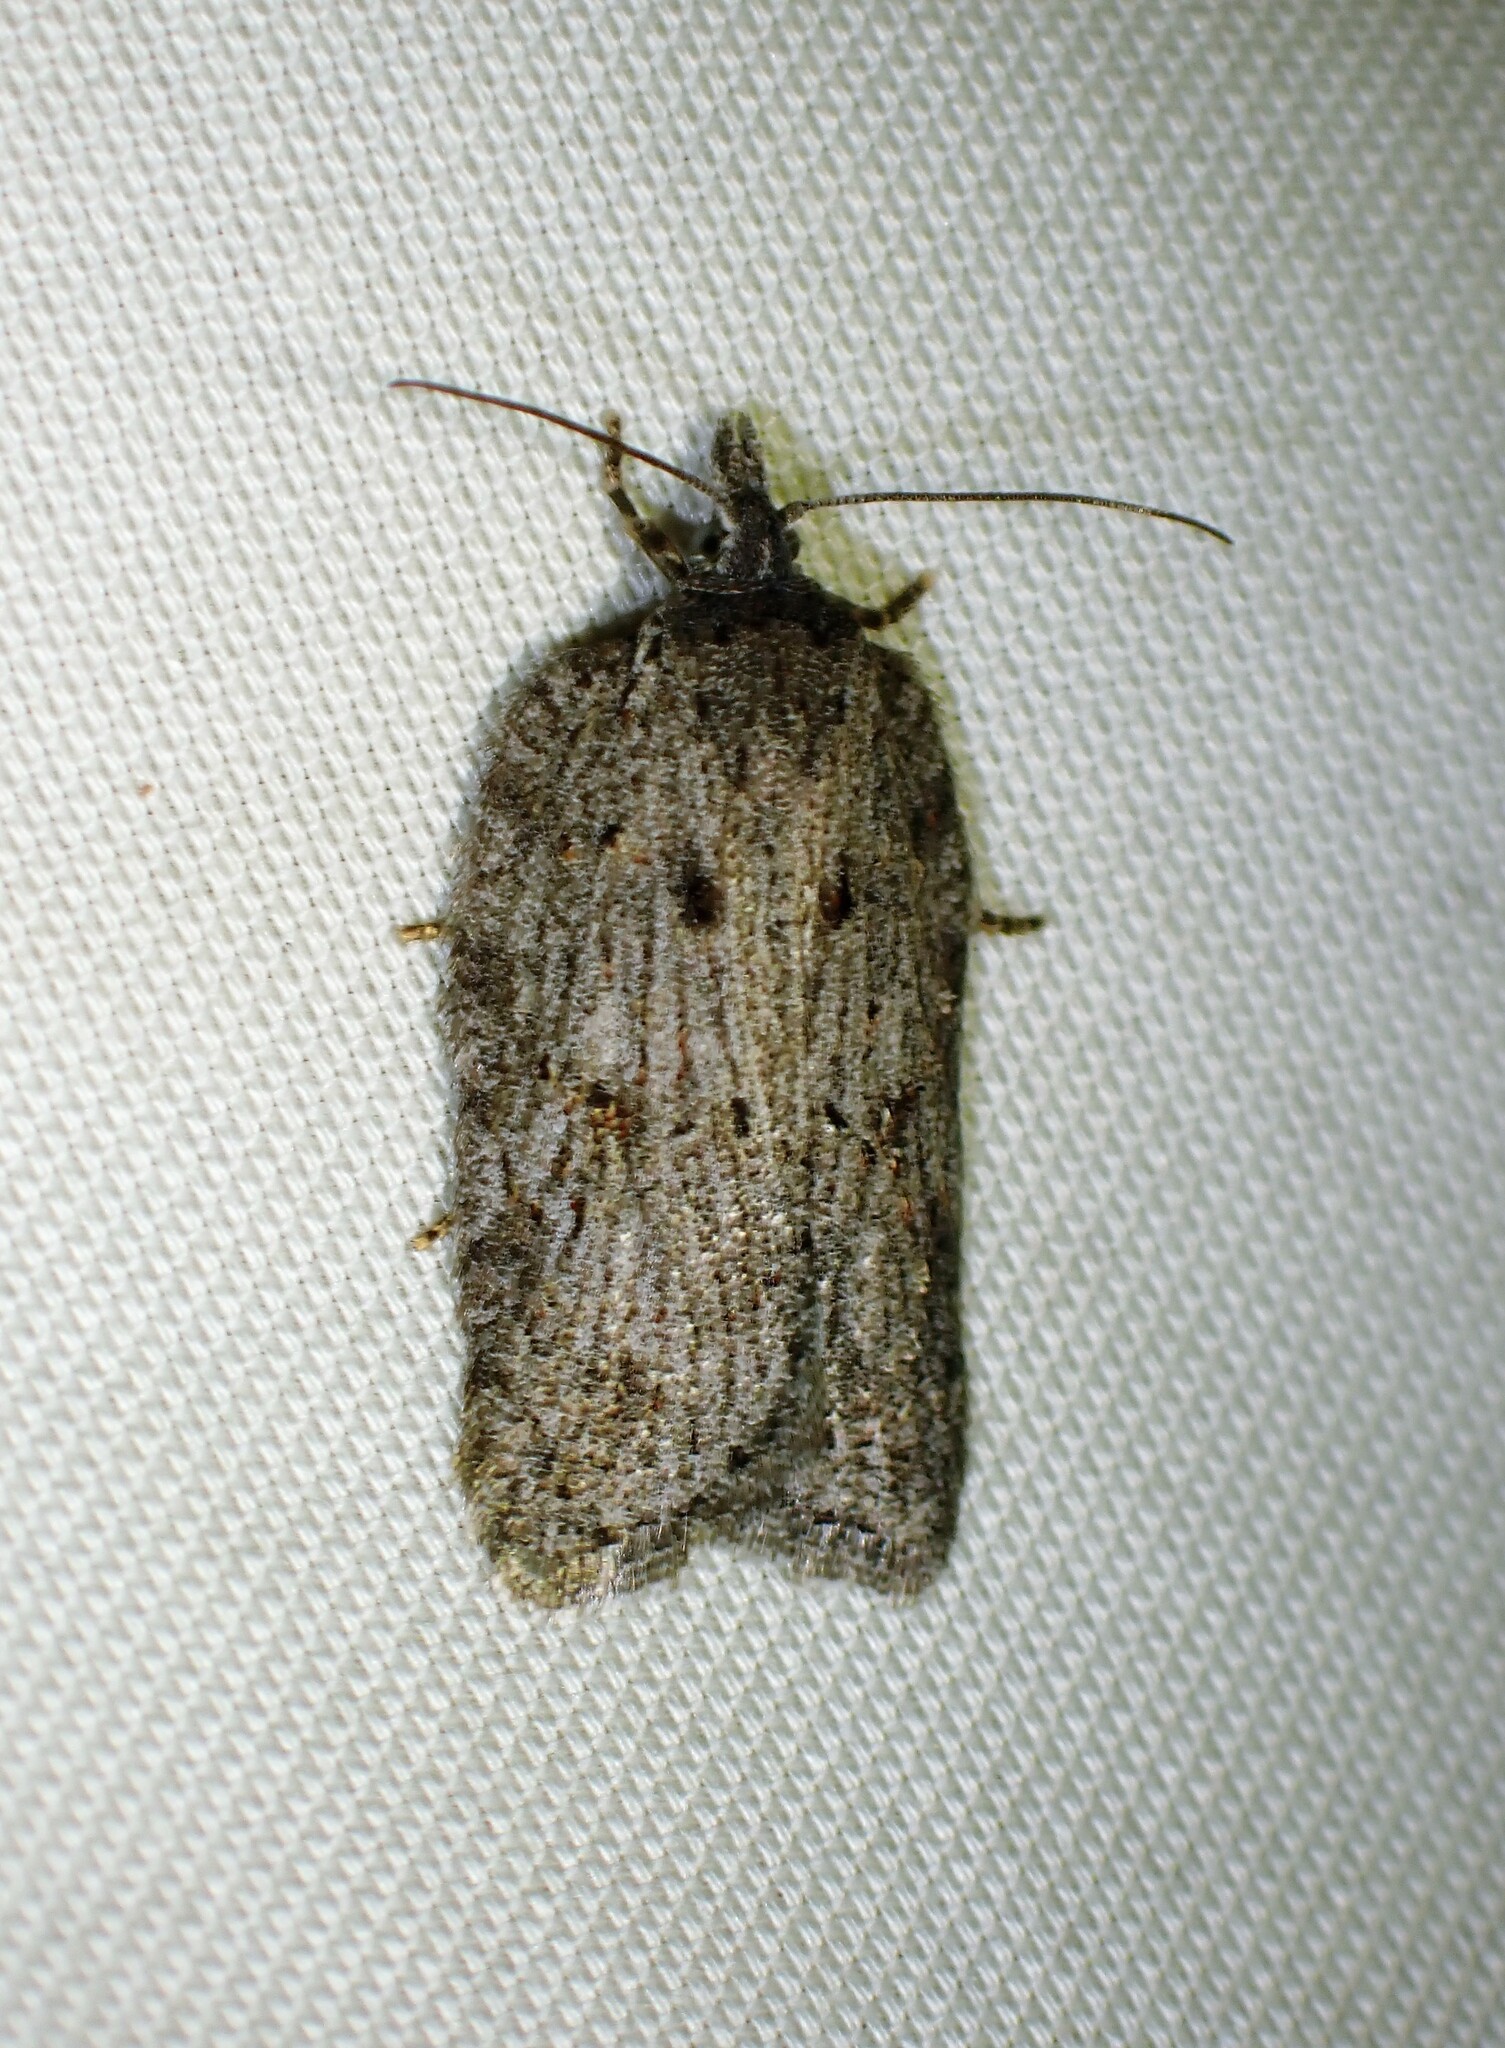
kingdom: Animalia
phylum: Arthropoda
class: Insecta
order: Lepidoptera
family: Tortricidae
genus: Acleris
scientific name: Acleris maximana
